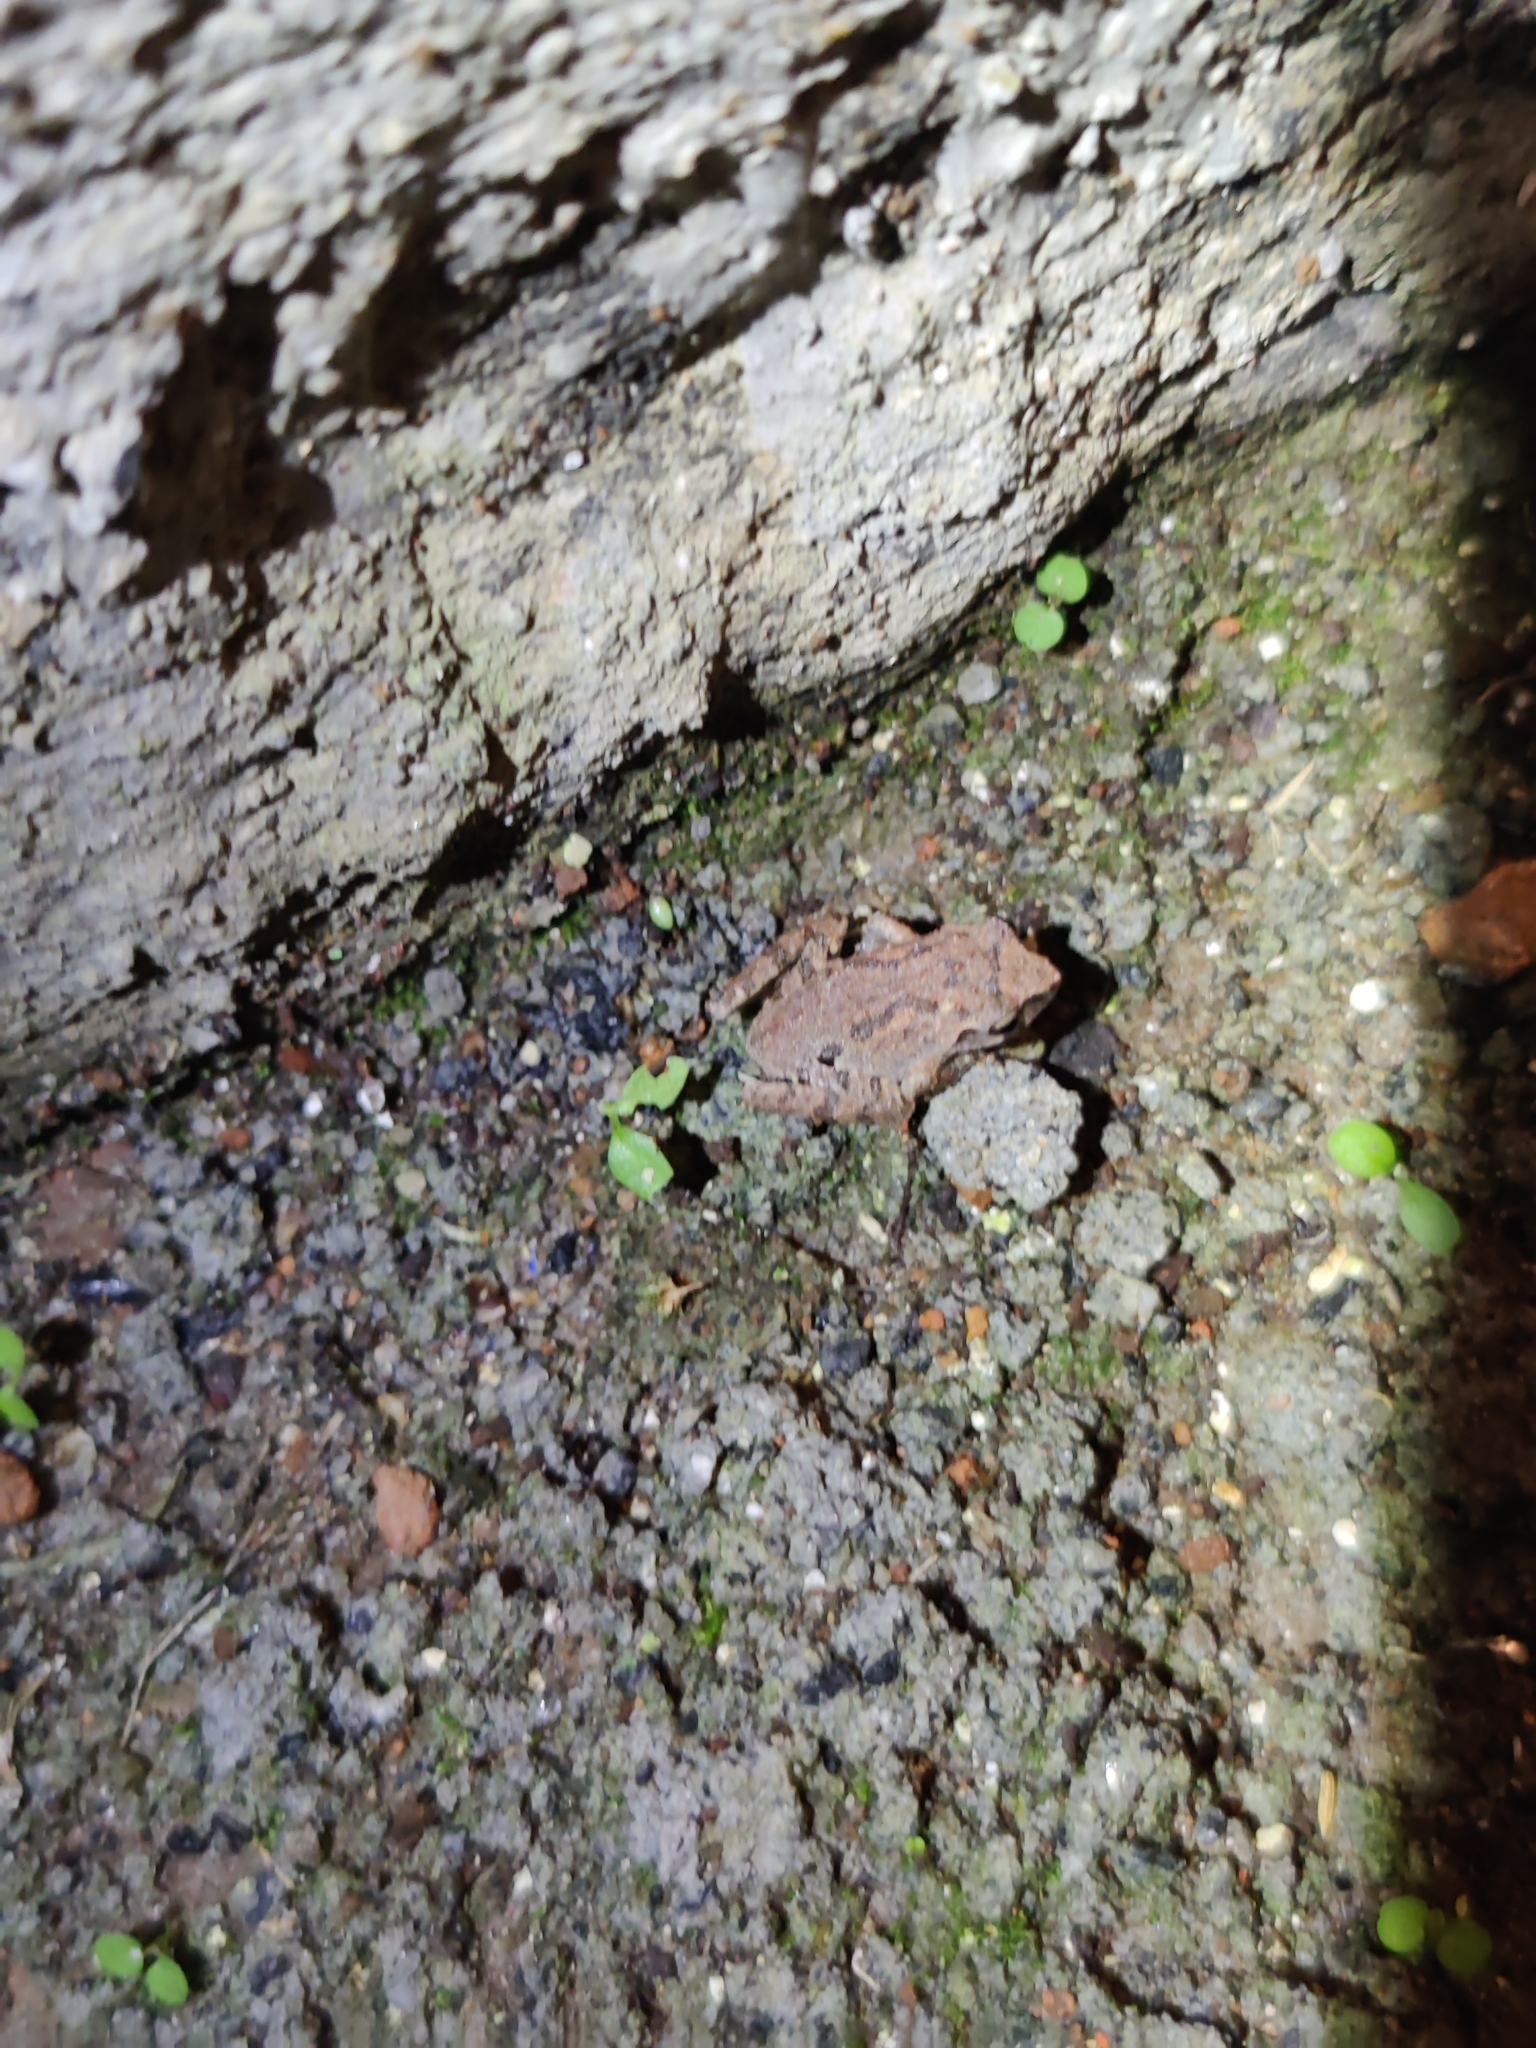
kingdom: Animalia
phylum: Chordata
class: Amphibia
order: Anura
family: Rhacophoridae
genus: Raorchestes
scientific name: Raorchestes tinniens
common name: Nilgiri bush frog
